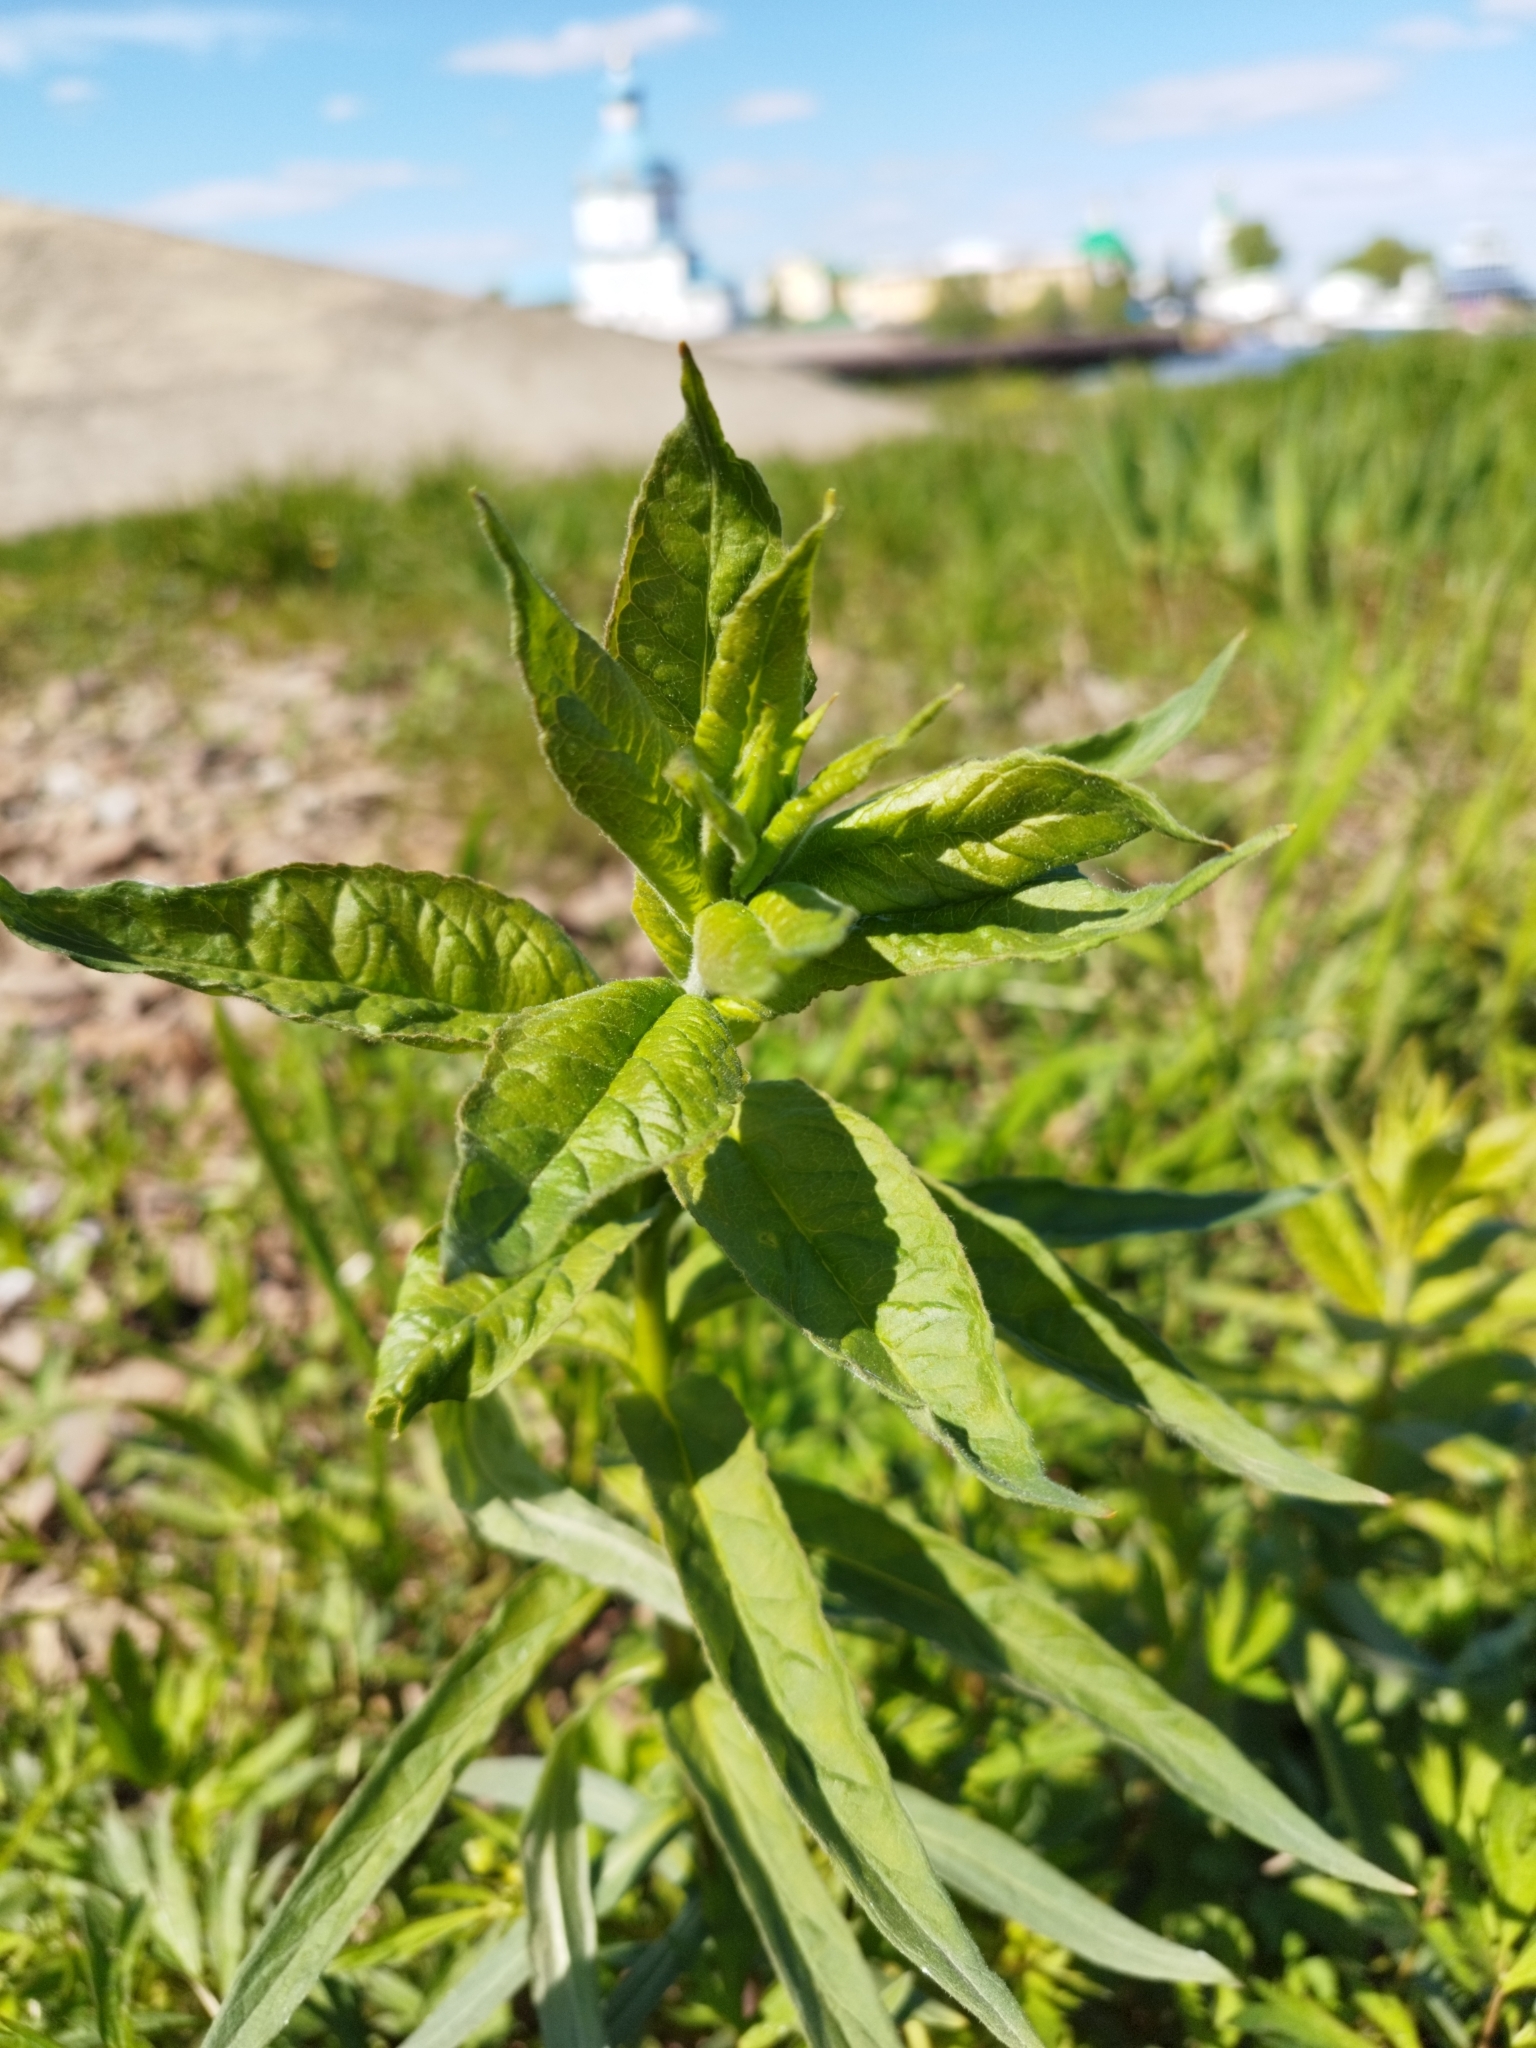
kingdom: Plantae
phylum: Tracheophyta
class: Magnoliopsida
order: Ericales
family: Primulaceae
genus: Lysimachia
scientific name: Lysimachia vulgaris
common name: Yellow loosestrife
